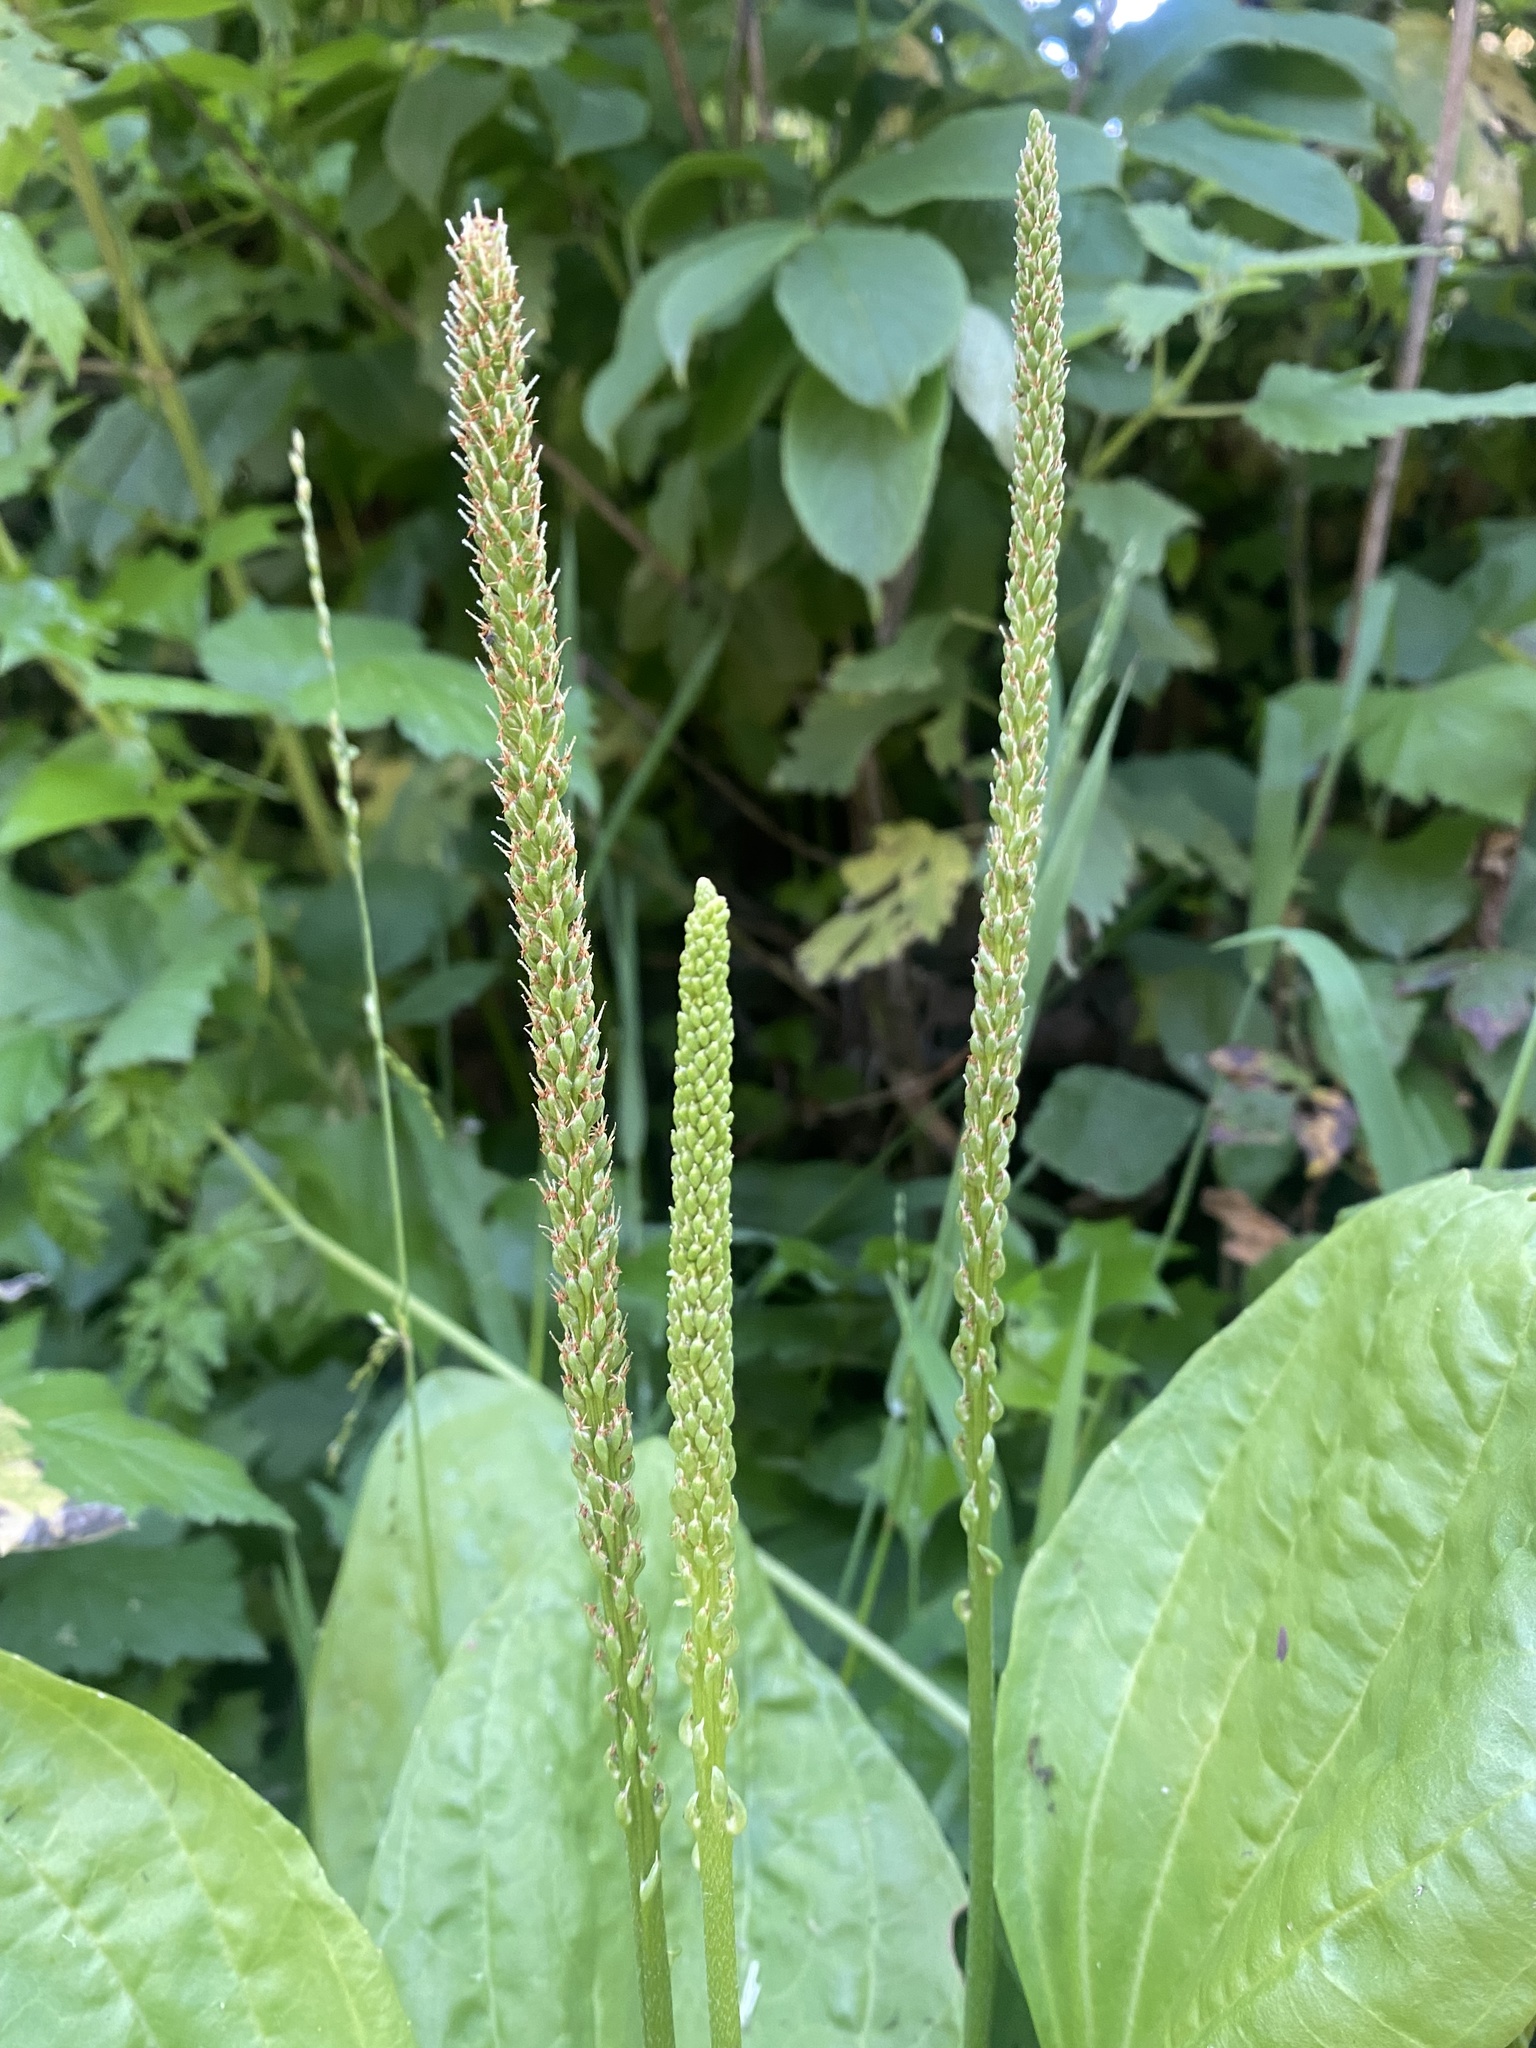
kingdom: Plantae
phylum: Tracheophyta
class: Magnoliopsida
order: Lamiales
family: Plantaginaceae
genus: Plantago
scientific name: Plantago major
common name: Common plantain
